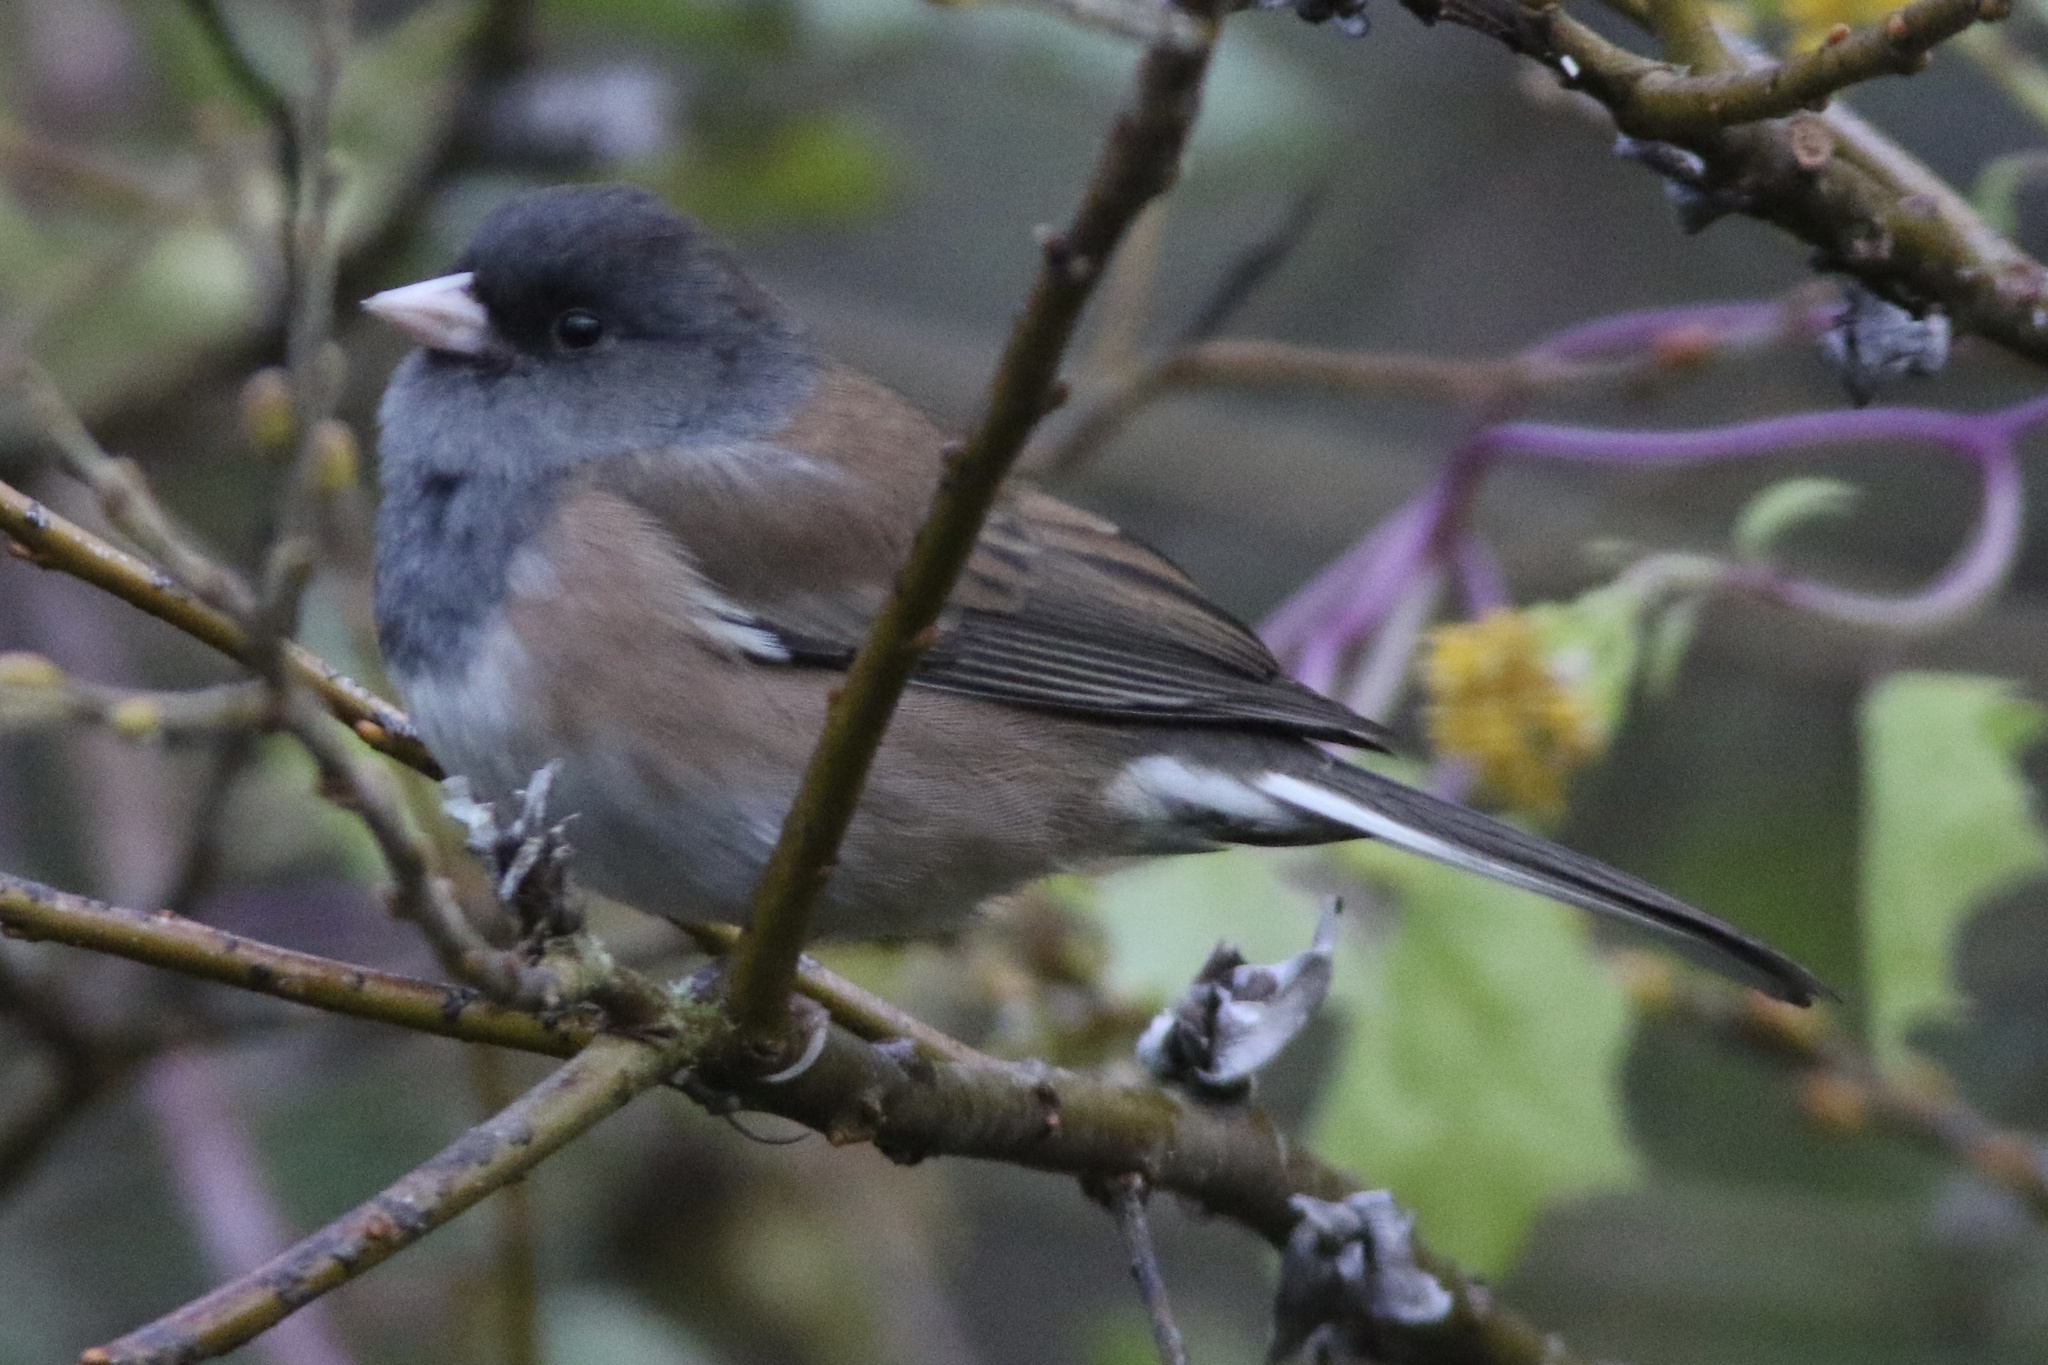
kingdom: Animalia
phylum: Chordata
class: Aves
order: Passeriformes
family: Passerellidae
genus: Junco
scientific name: Junco hyemalis
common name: Dark-eyed junco
